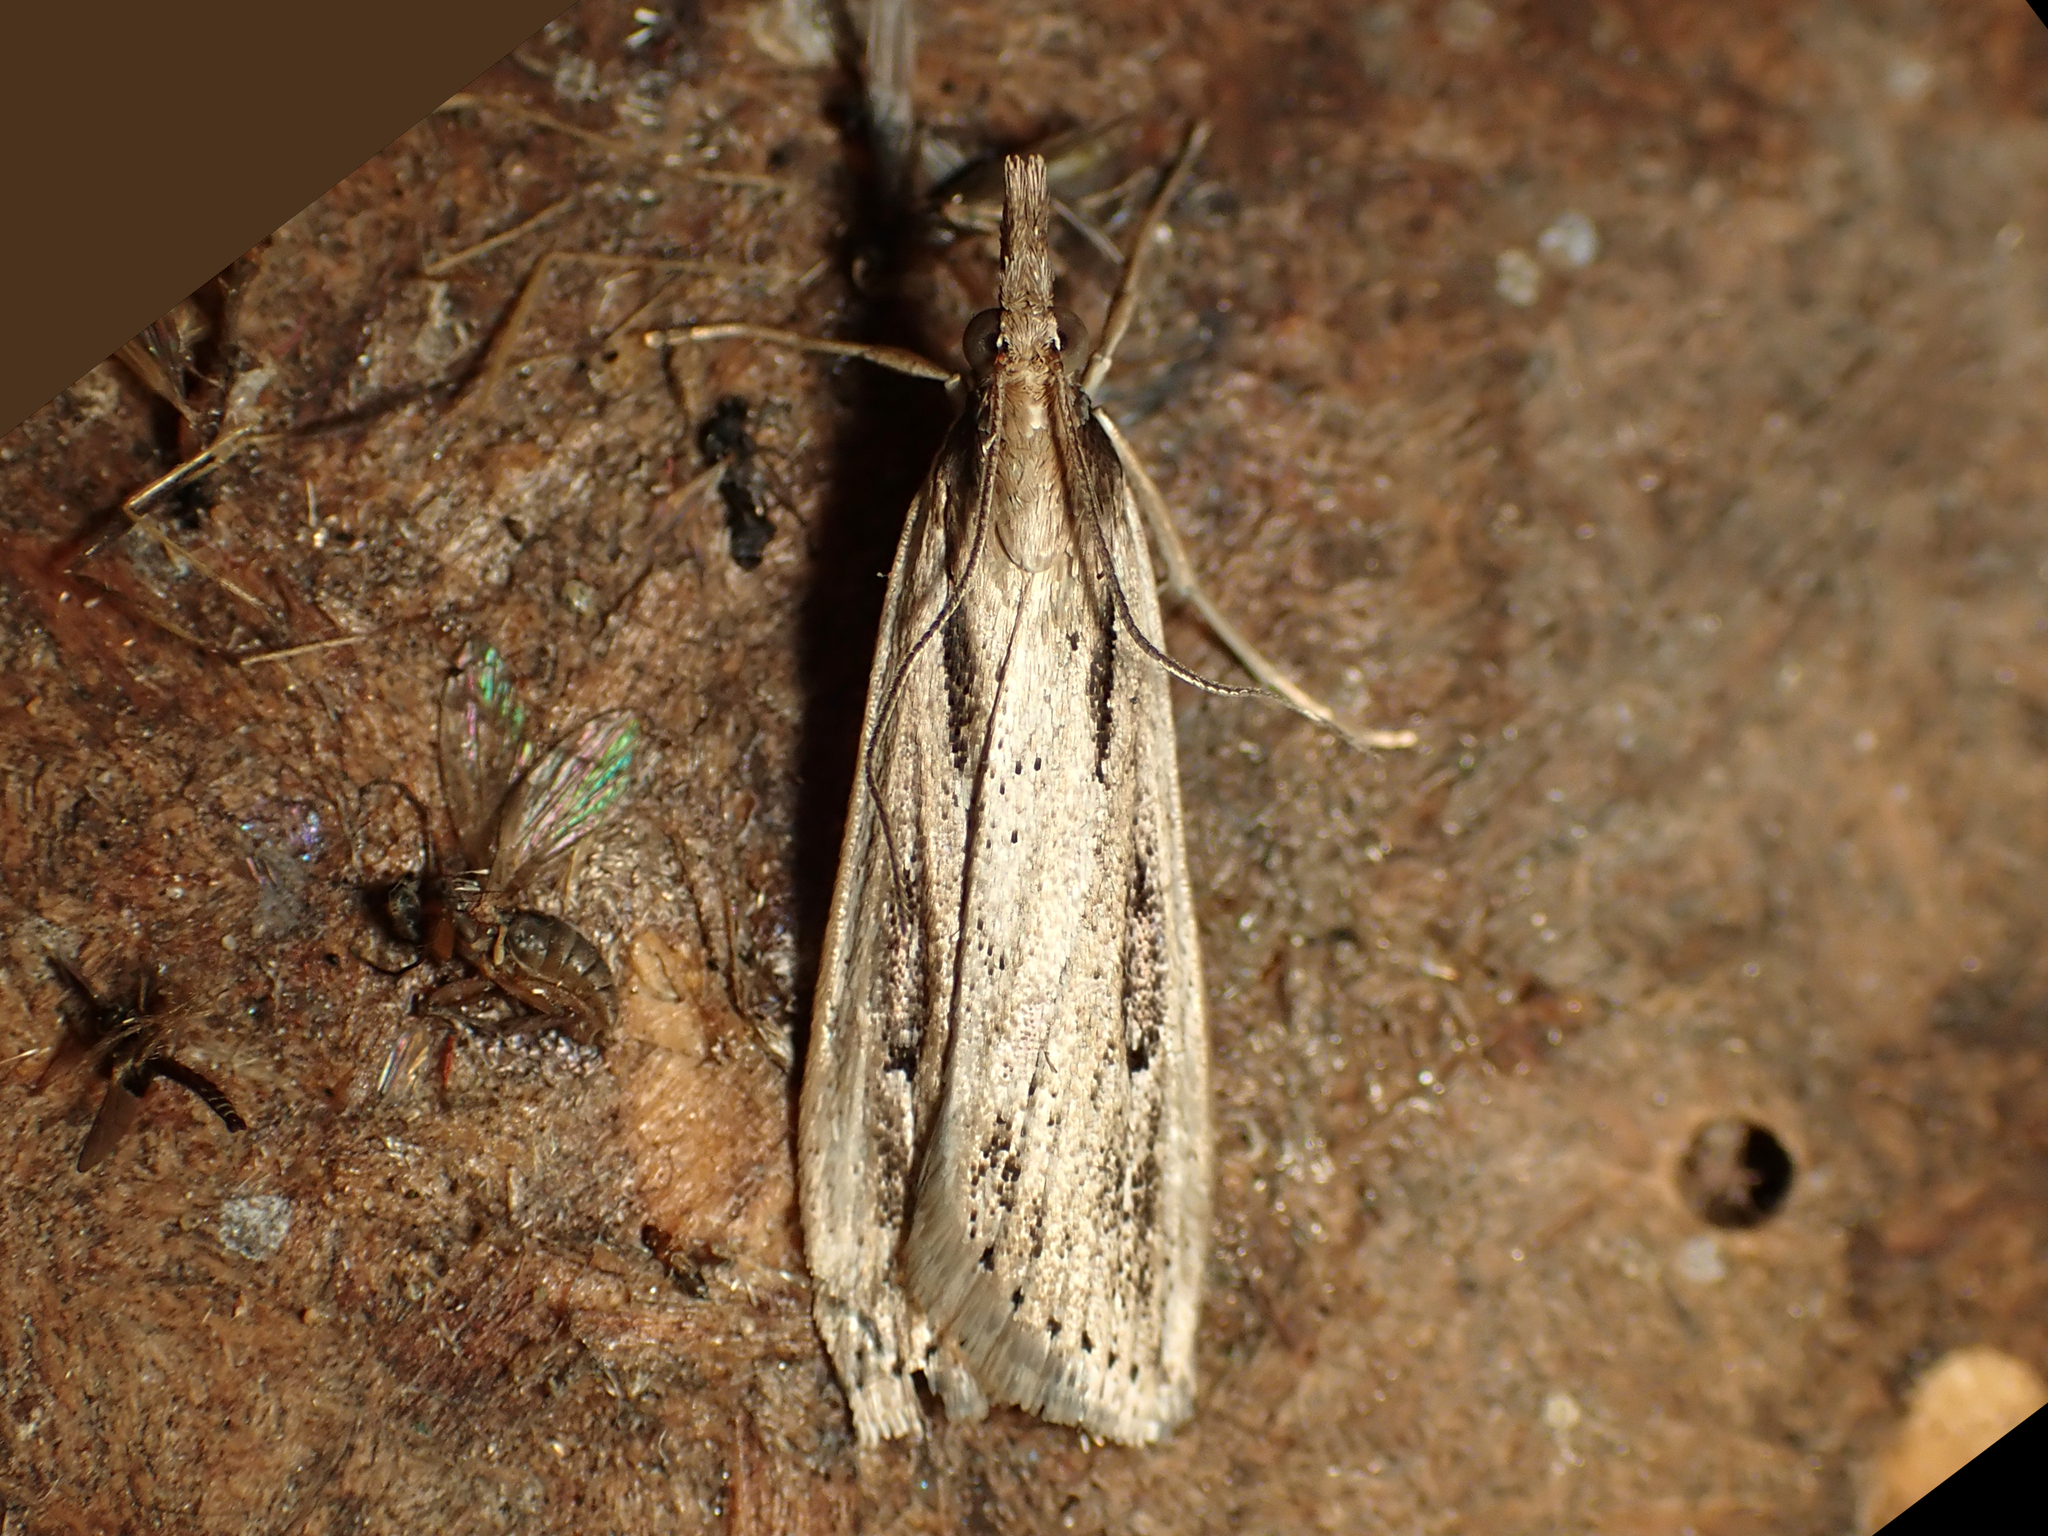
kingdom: Animalia
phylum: Arthropoda
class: Insecta
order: Lepidoptera
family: Crambidae
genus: Eudonia
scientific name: Eudonia sabulosella
